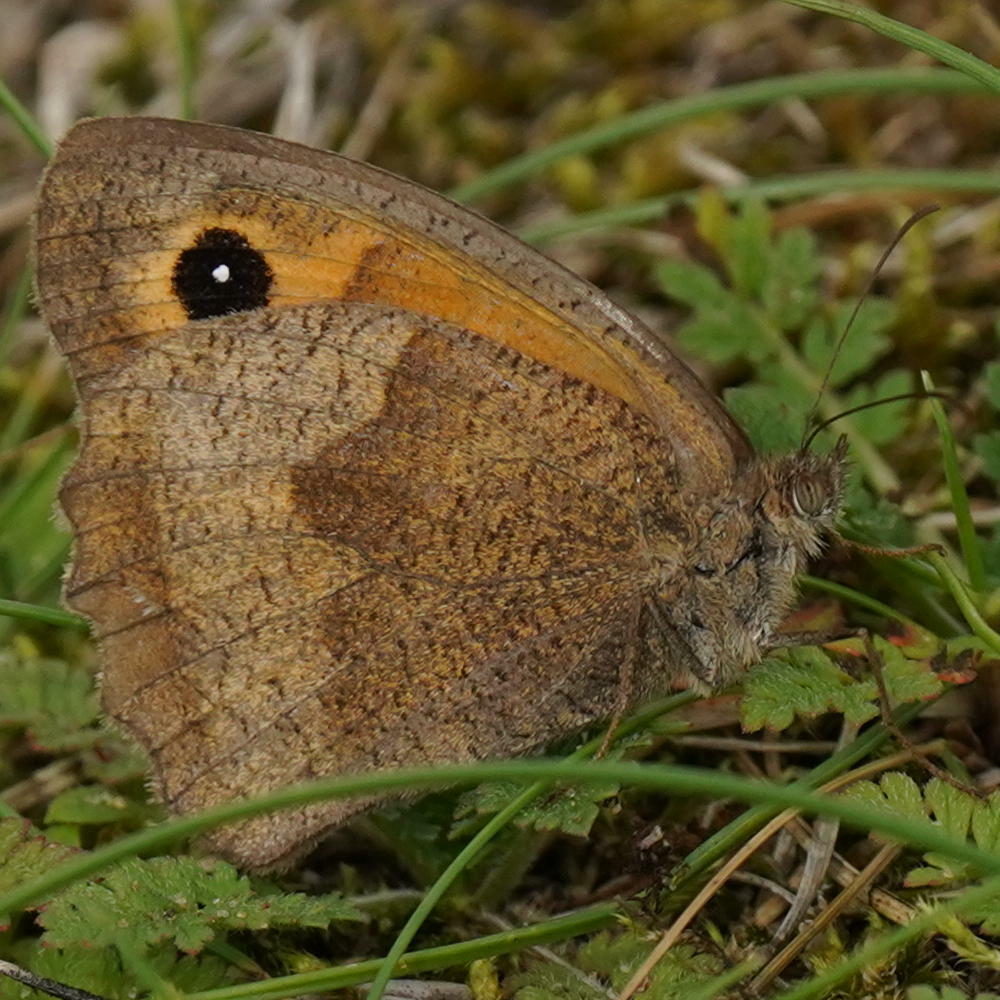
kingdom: Animalia
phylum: Arthropoda
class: Insecta
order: Lepidoptera
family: Nymphalidae
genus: Maniola
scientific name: Maniola jurtina
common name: Meadow brown
